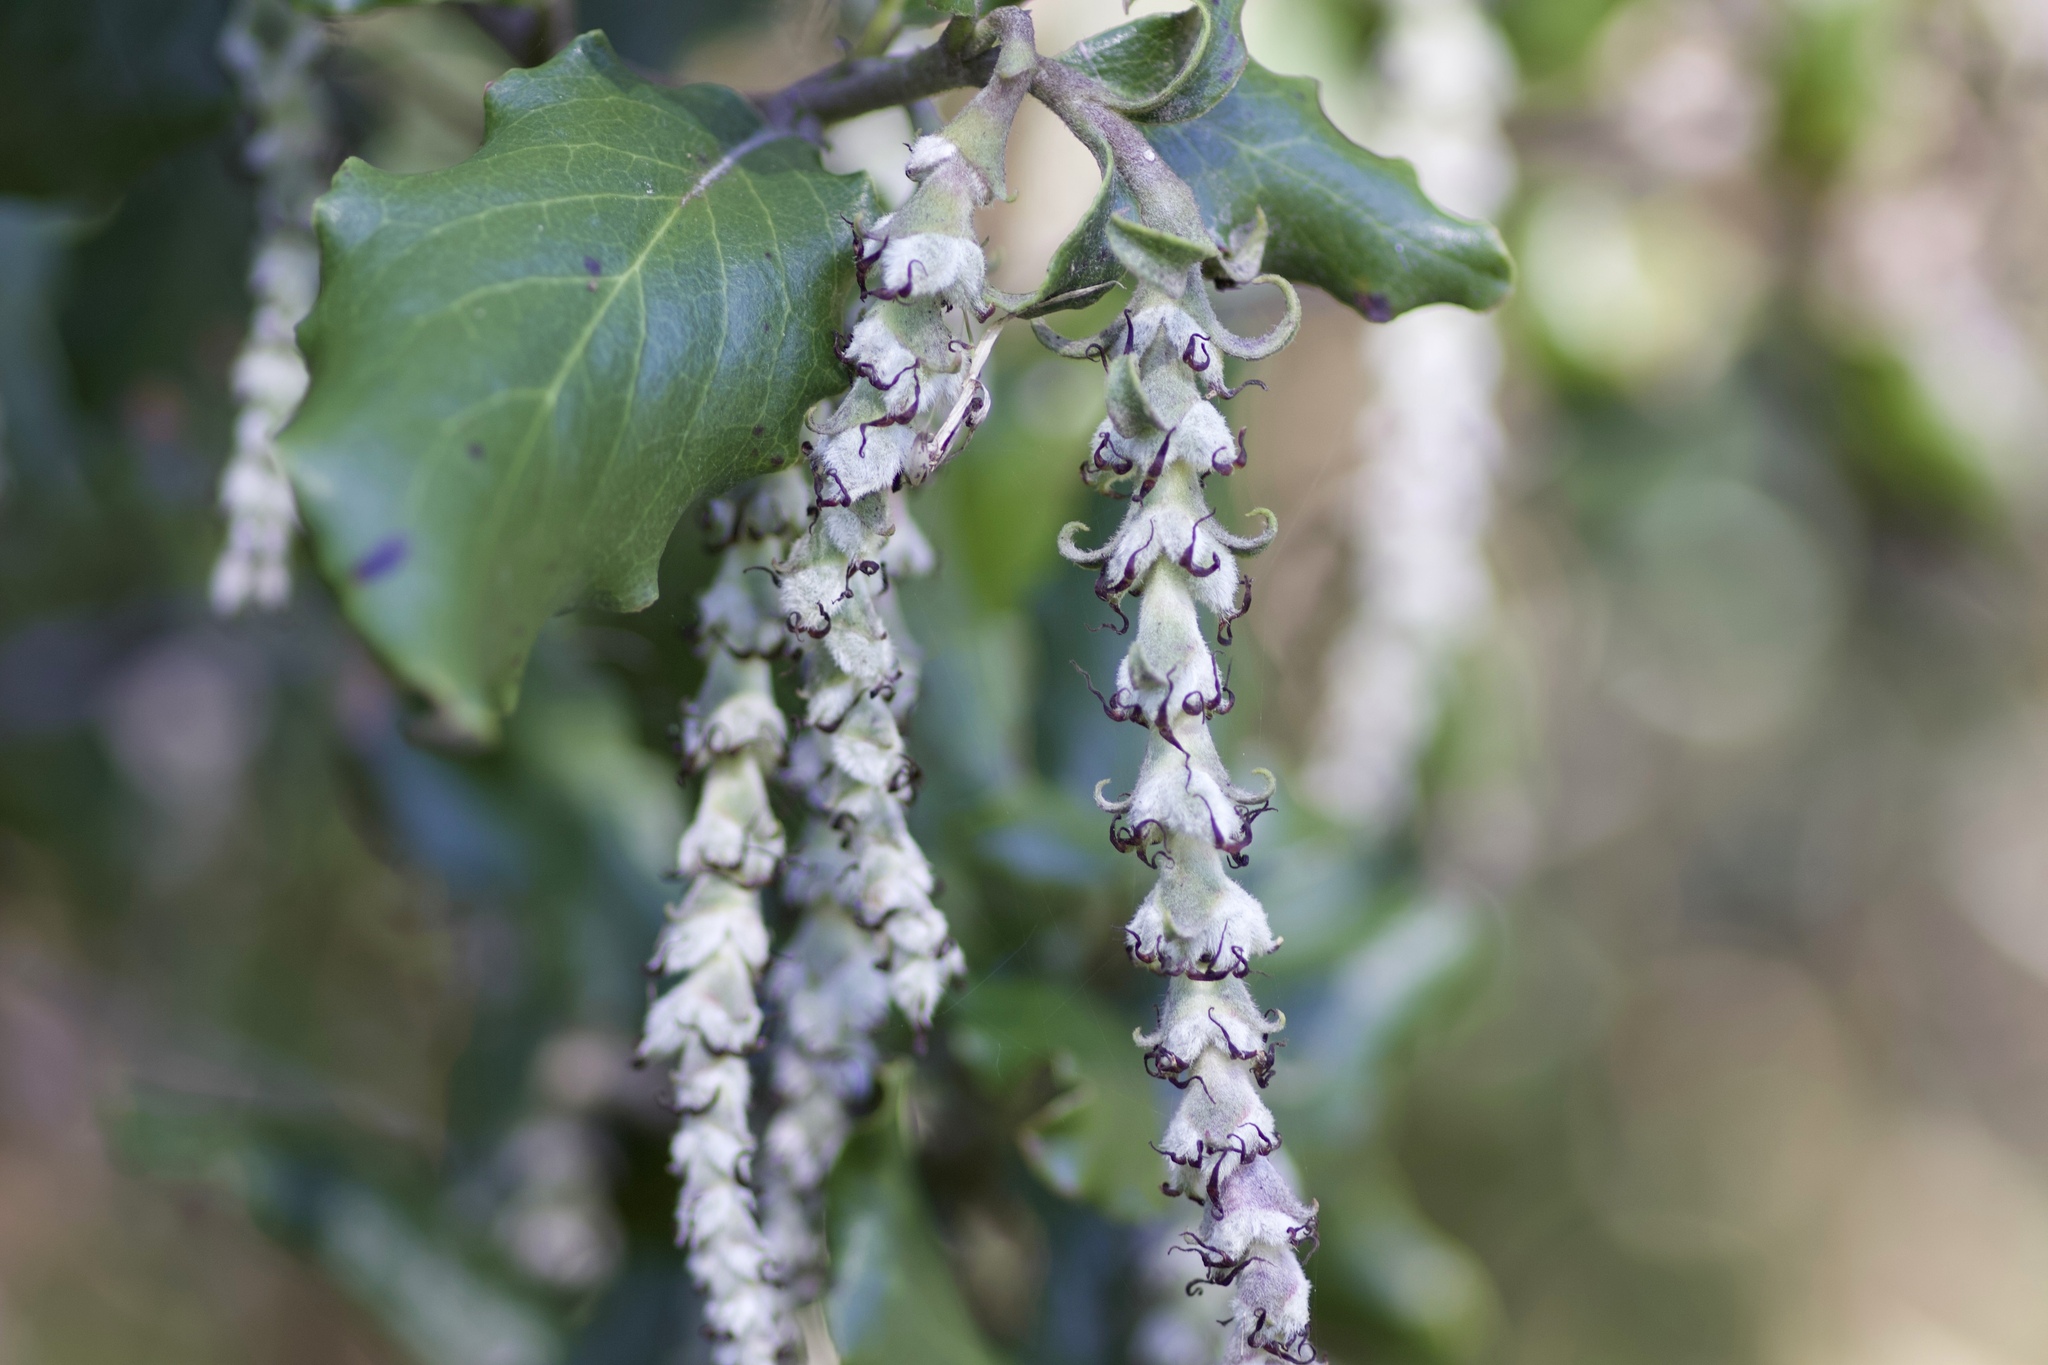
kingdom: Plantae
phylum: Tracheophyta
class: Magnoliopsida
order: Garryales
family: Garryaceae
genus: Garrya
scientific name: Garrya elliptica
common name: Silk-tassel
